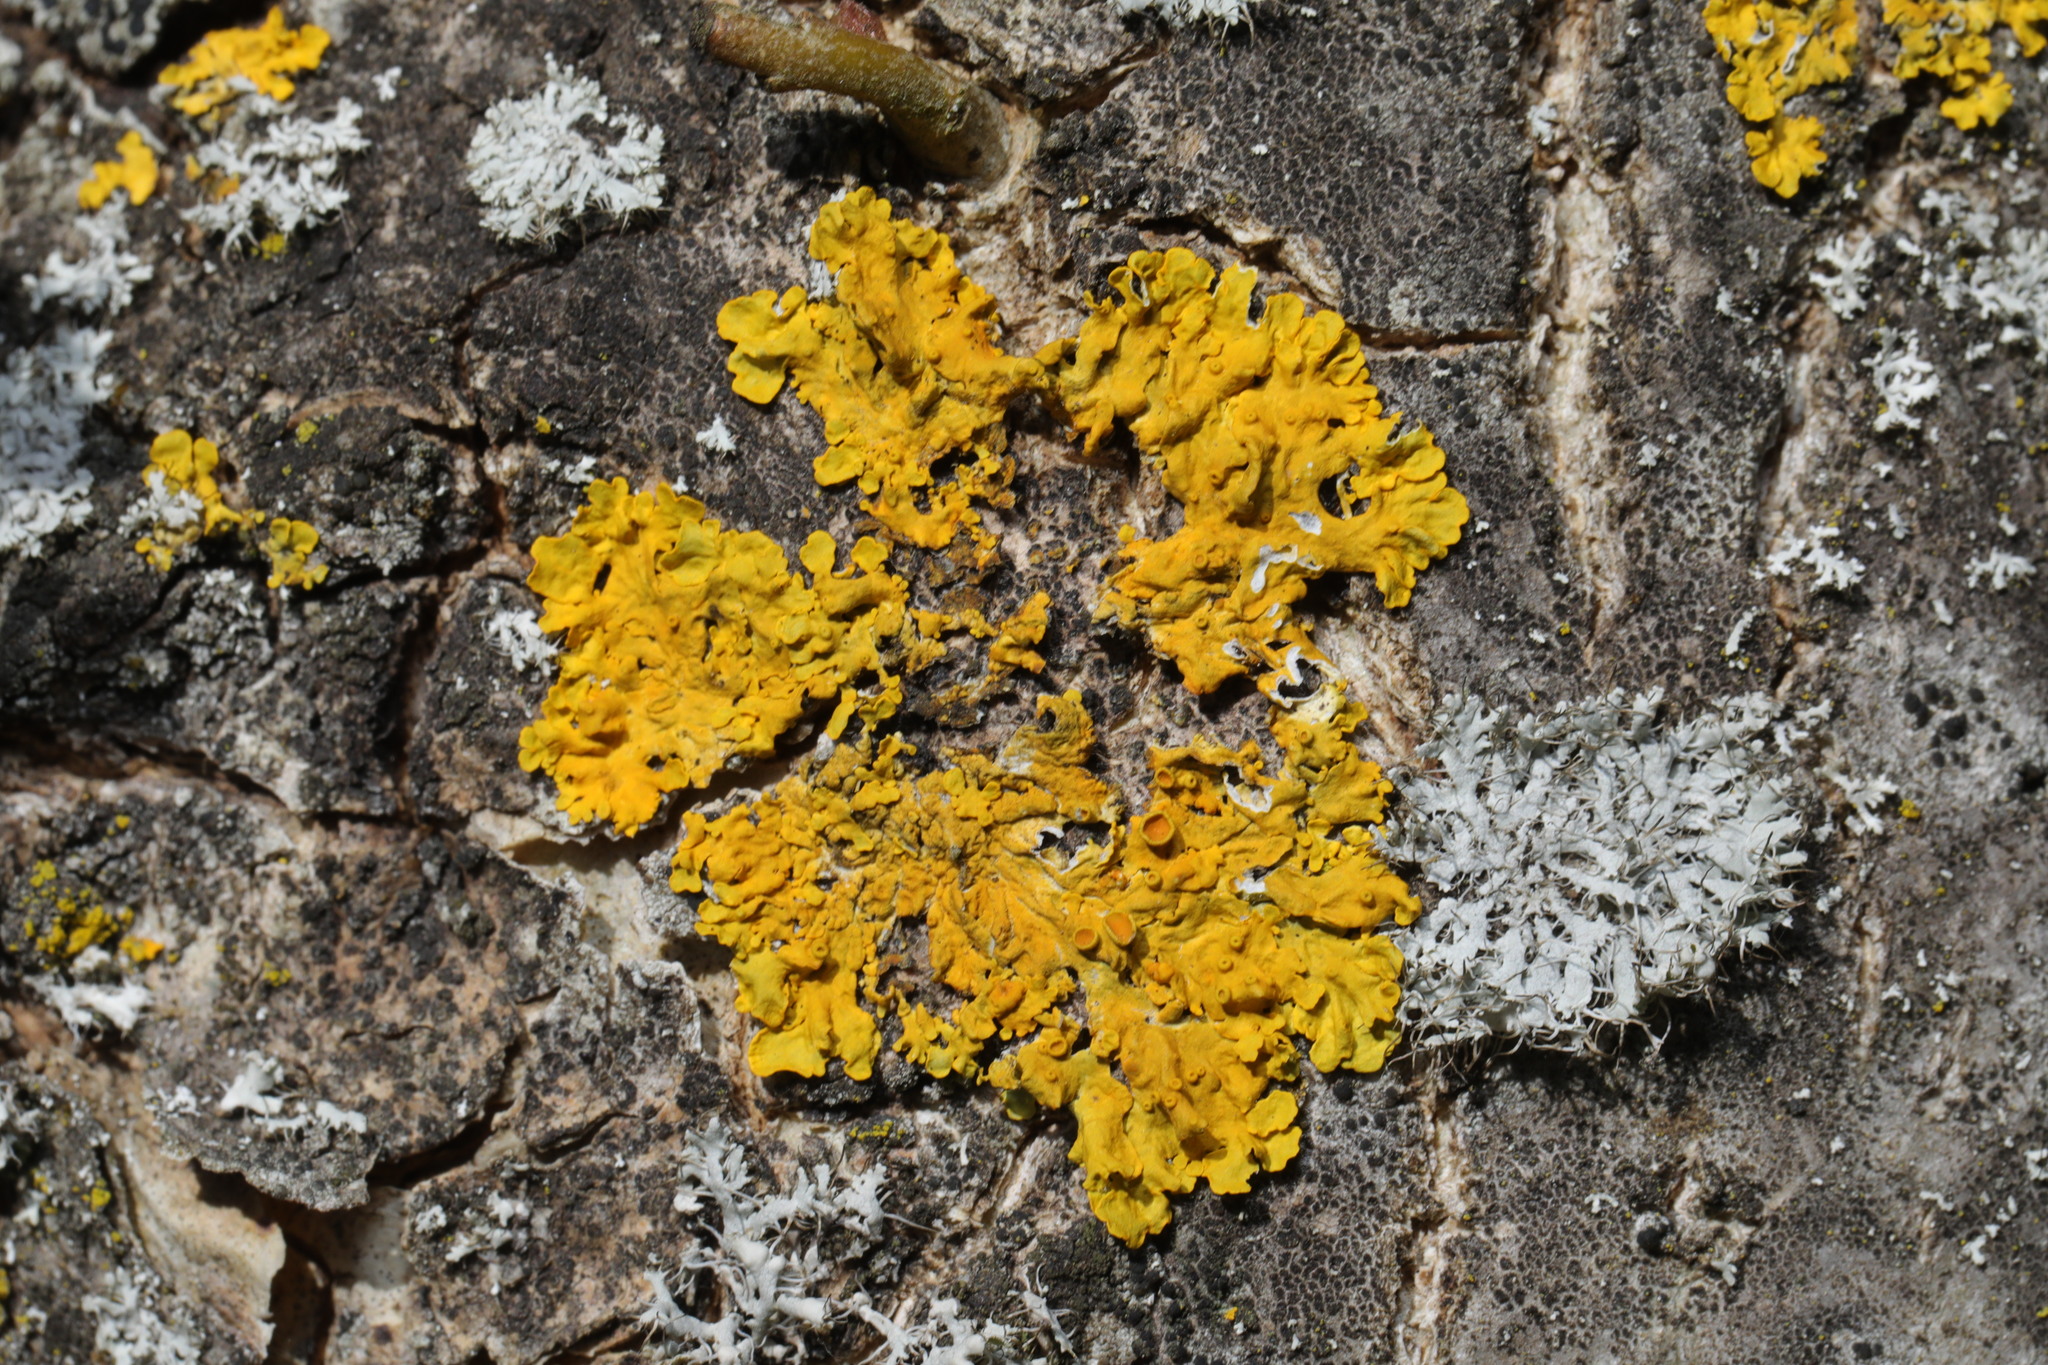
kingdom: Fungi
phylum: Ascomycota
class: Lecanoromycetes
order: Teloschistales
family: Teloschistaceae
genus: Xanthoria
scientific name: Xanthoria parietina
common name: Common orange lichen
